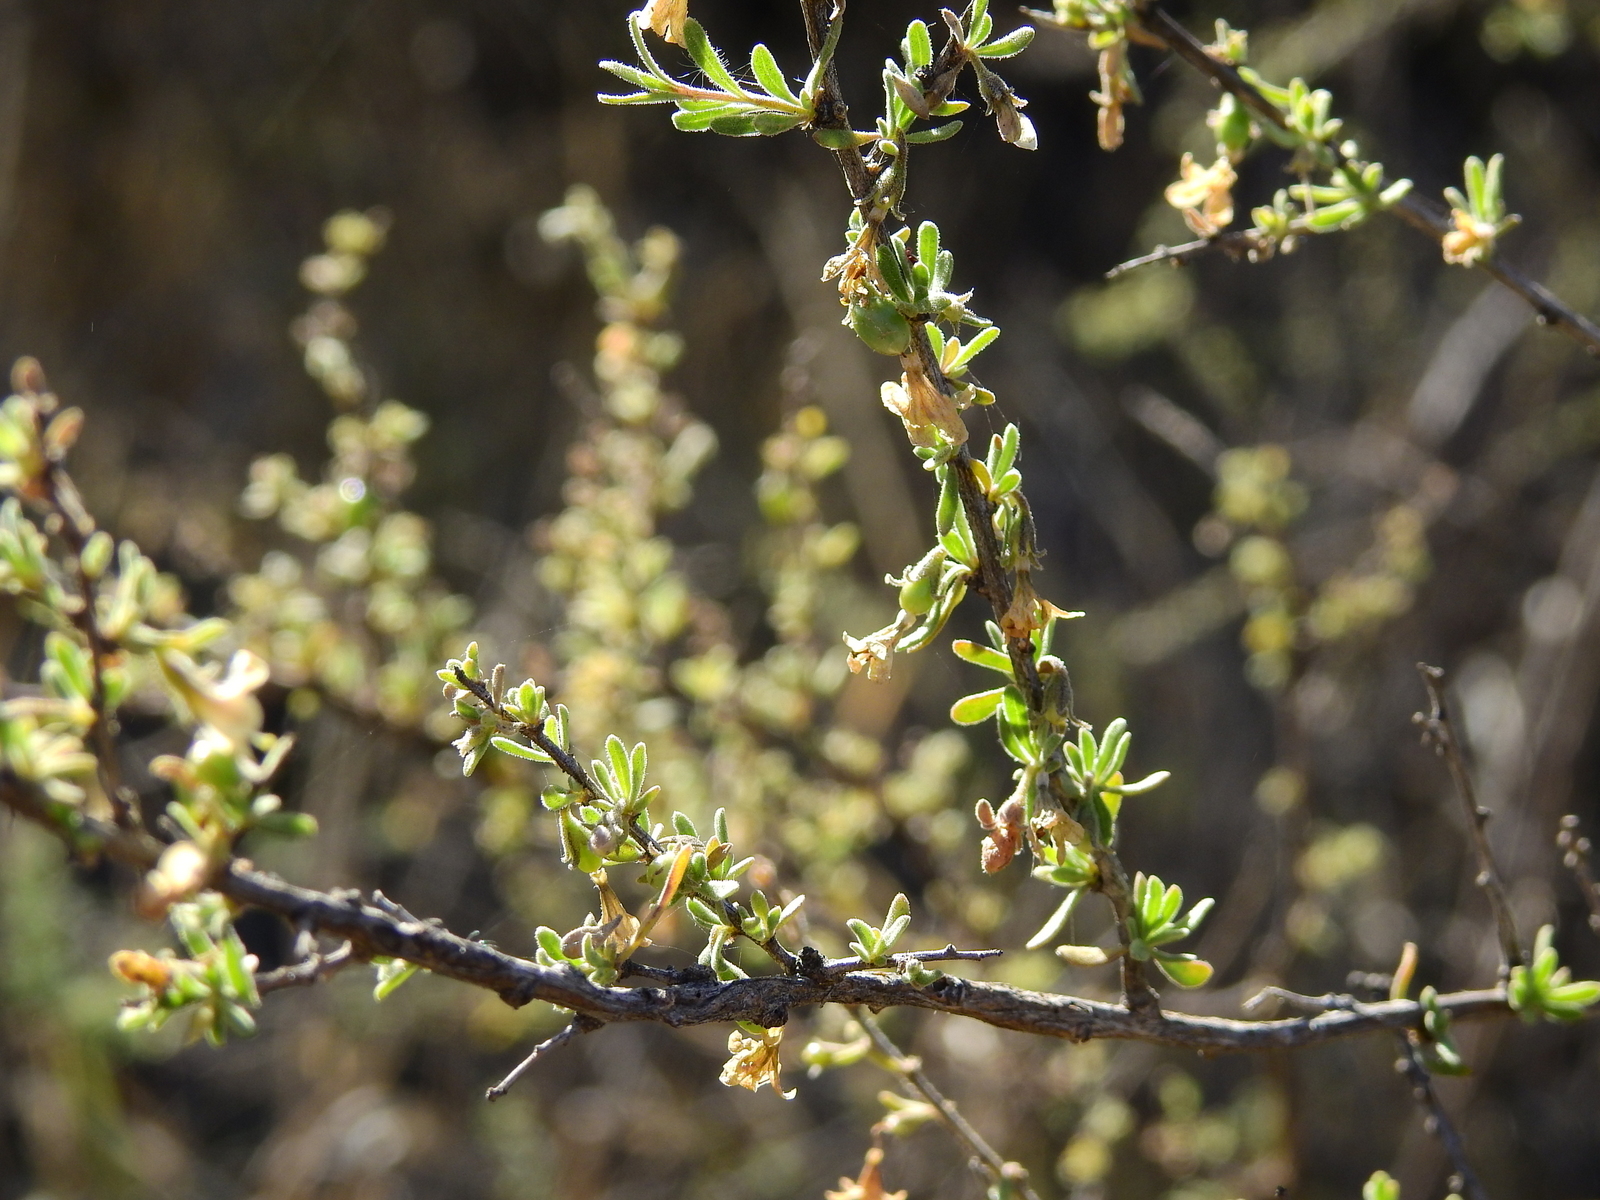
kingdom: Plantae
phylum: Tracheophyta
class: Magnoliopsida
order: Solanales
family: Solanaceae
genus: Lycium
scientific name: Lycium chilense
